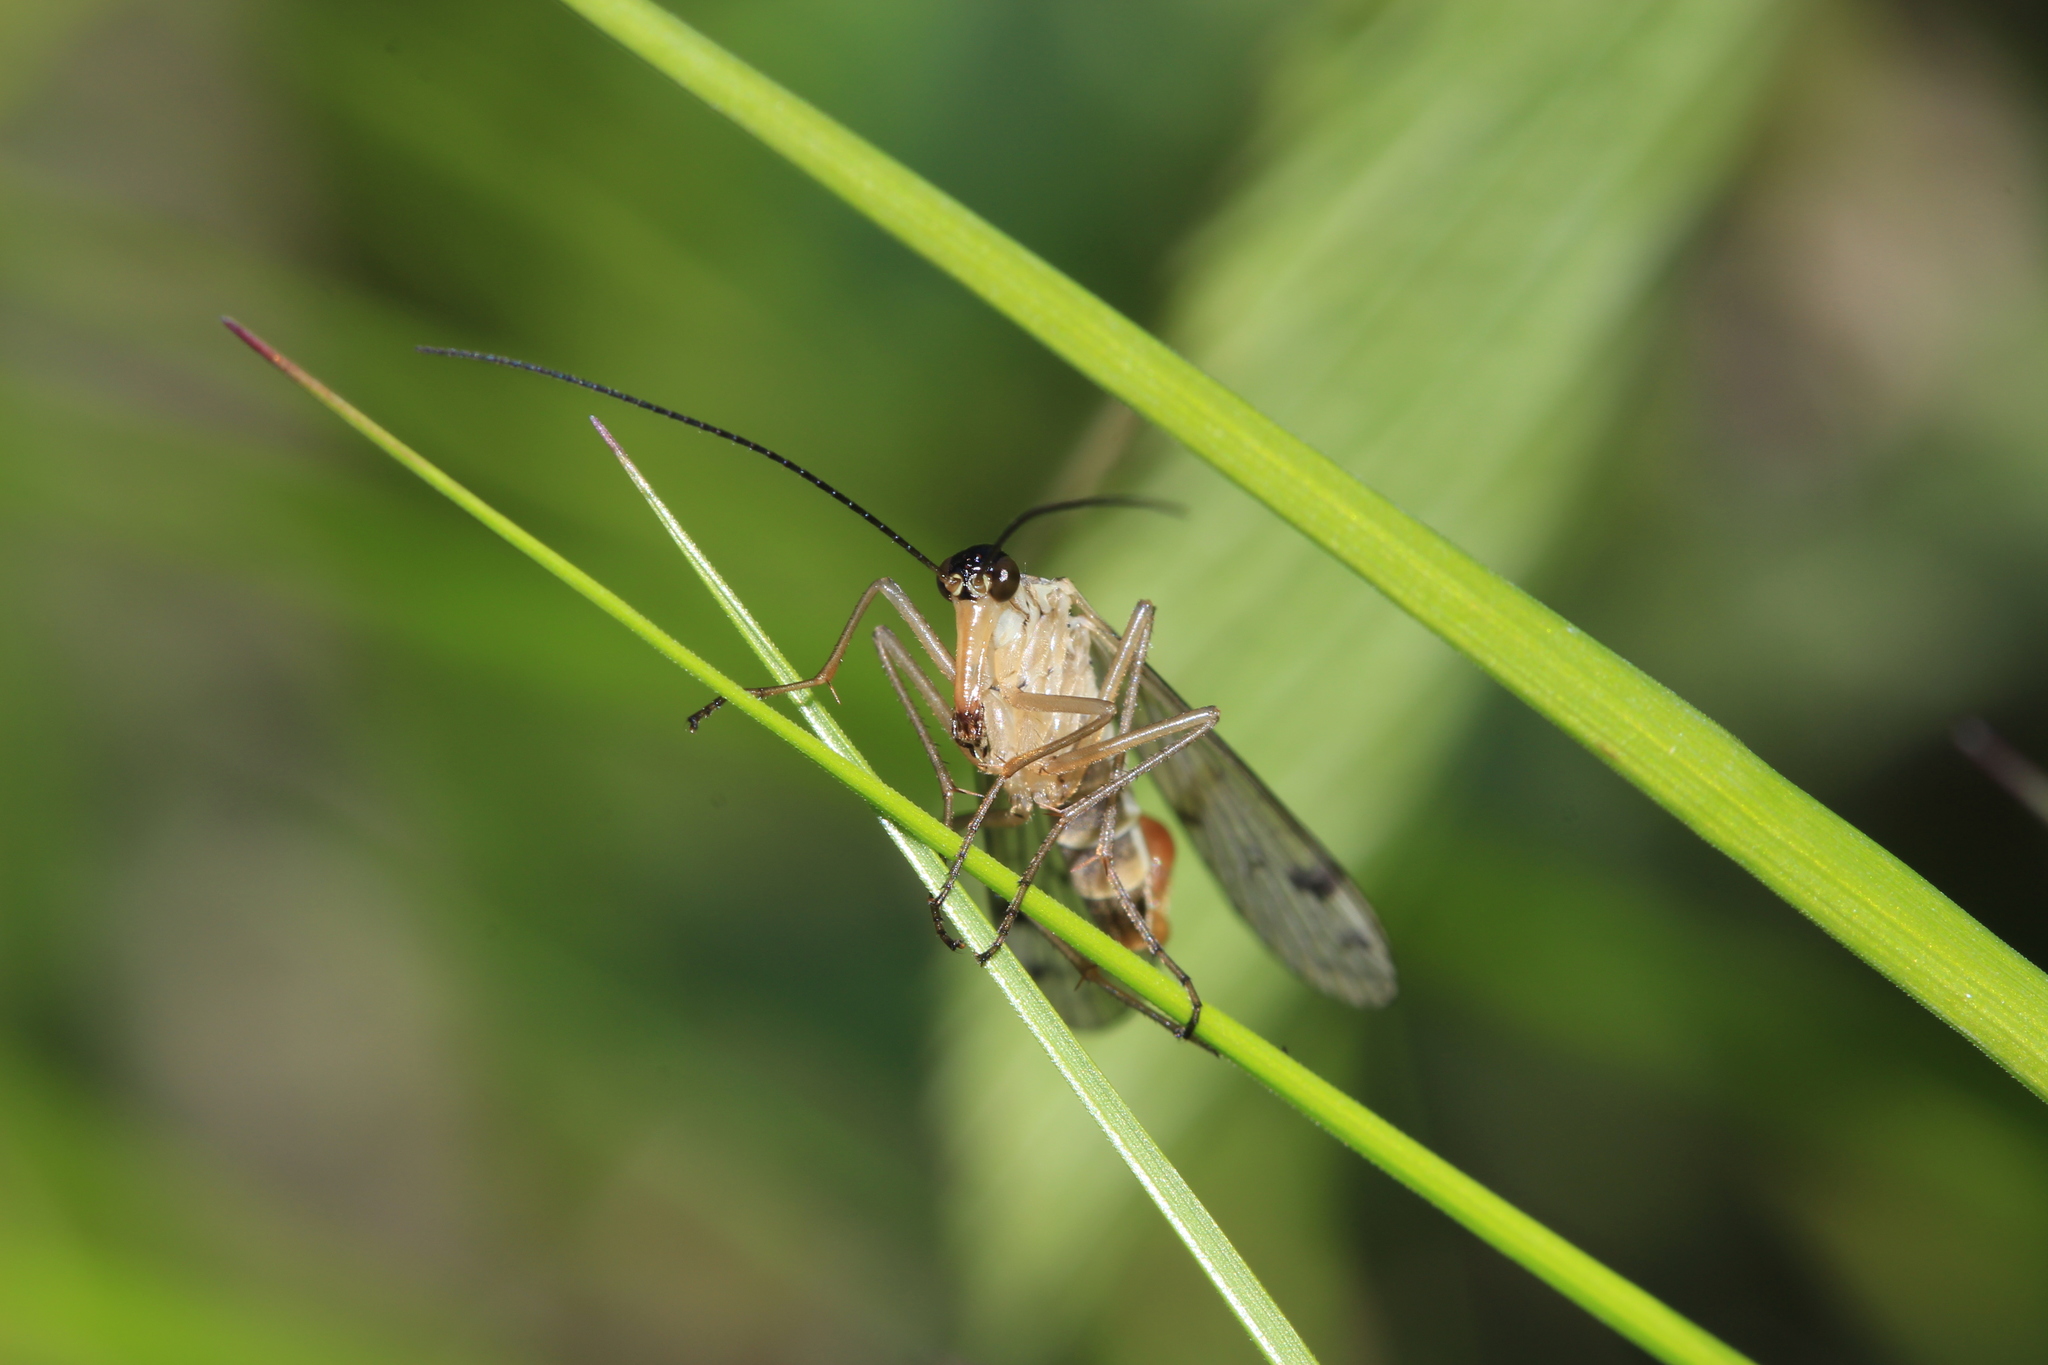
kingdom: Animalia
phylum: Arthropoda
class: Insecta
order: Mecoptera
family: Panorpidae
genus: Panorpa
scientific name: Panorpa alpina
